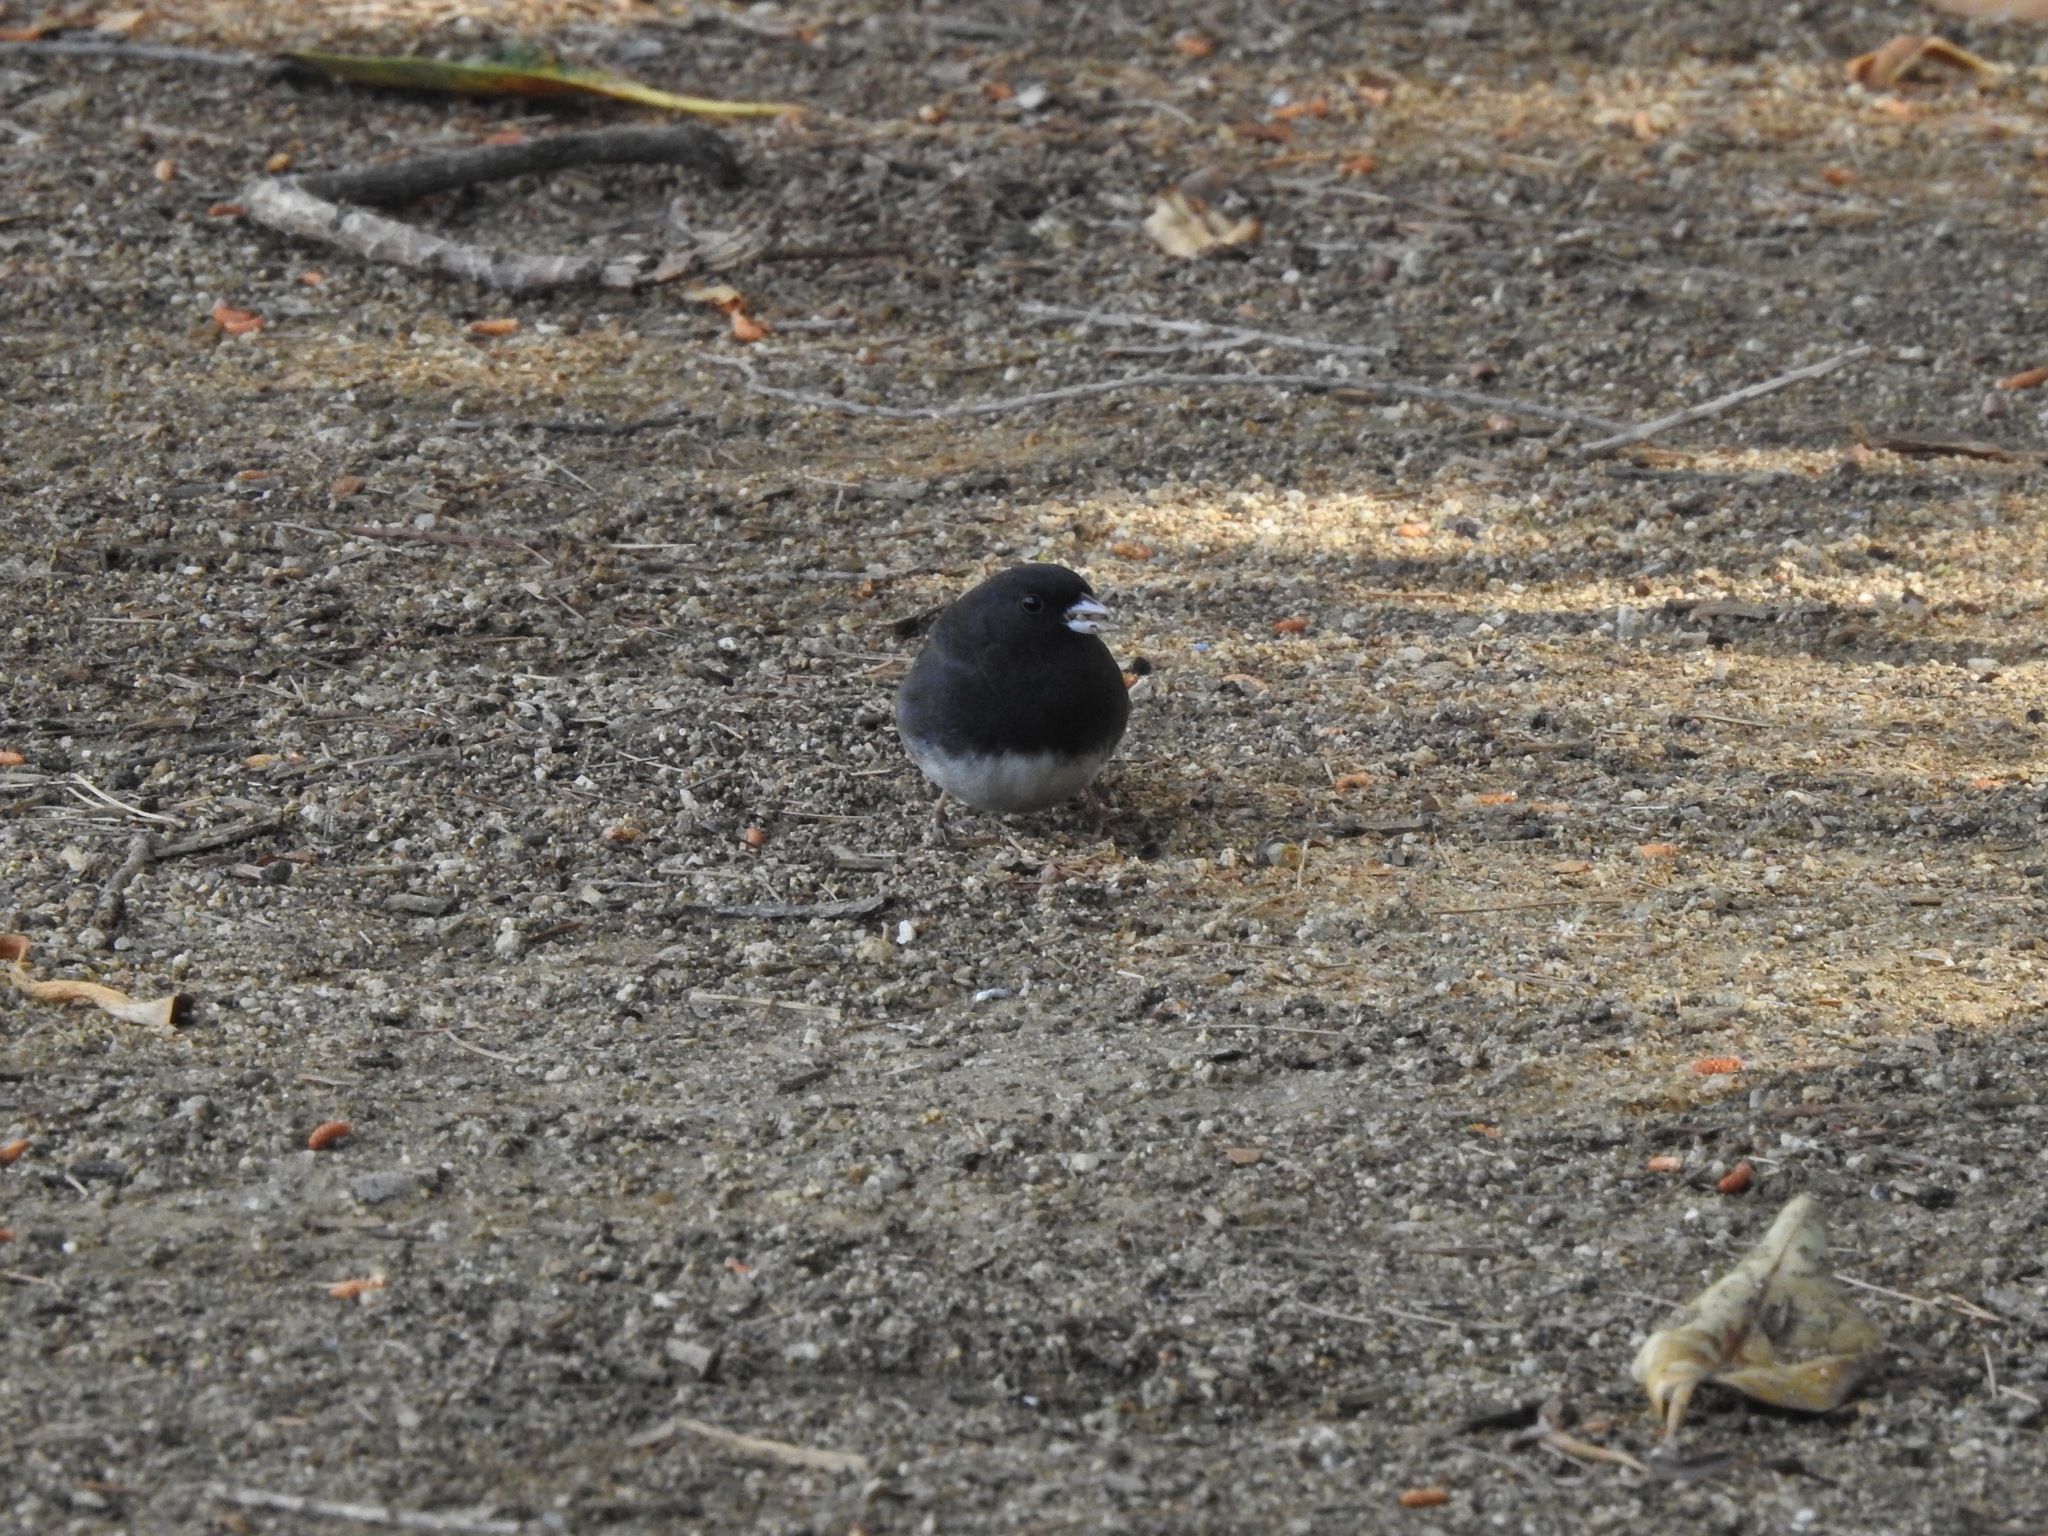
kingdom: Animalia
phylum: Chordata
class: Aves
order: Passeriformes
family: Passerellidae
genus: Junco
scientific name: Junco hyemalis
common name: Dark-eyed junco
